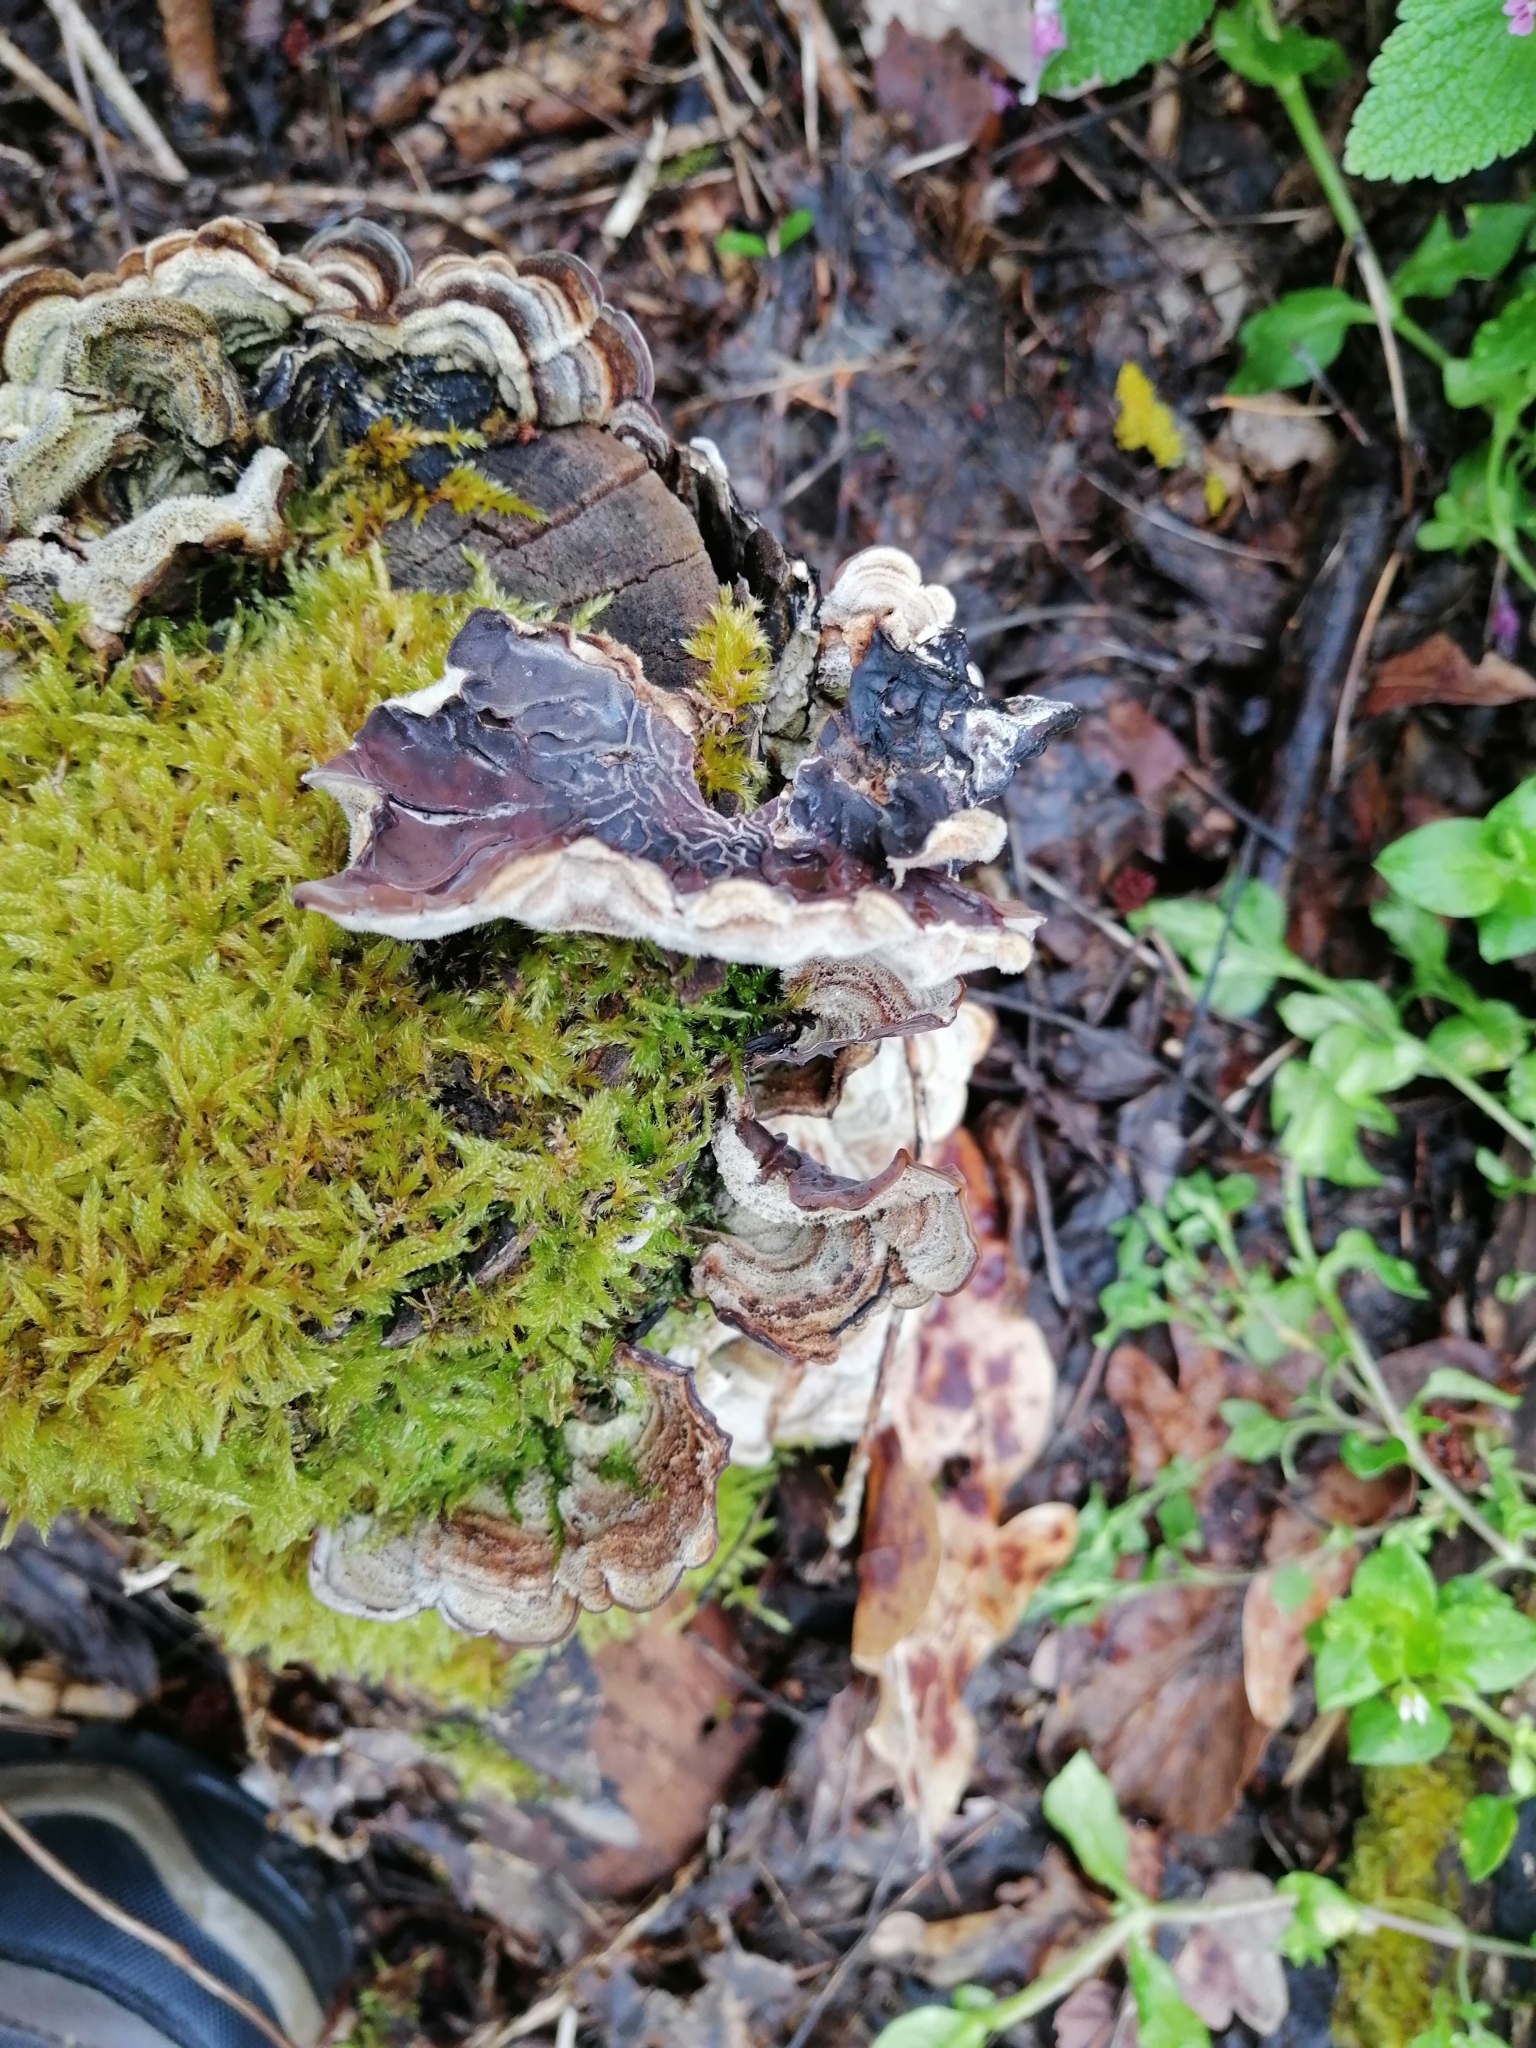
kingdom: Fungi
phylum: Basidiomycota
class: Agaricomycetes
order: Auriculariales
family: Auriculariaceae
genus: Auricularia
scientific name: Auricularia mesenterica
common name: Tripe fungus
